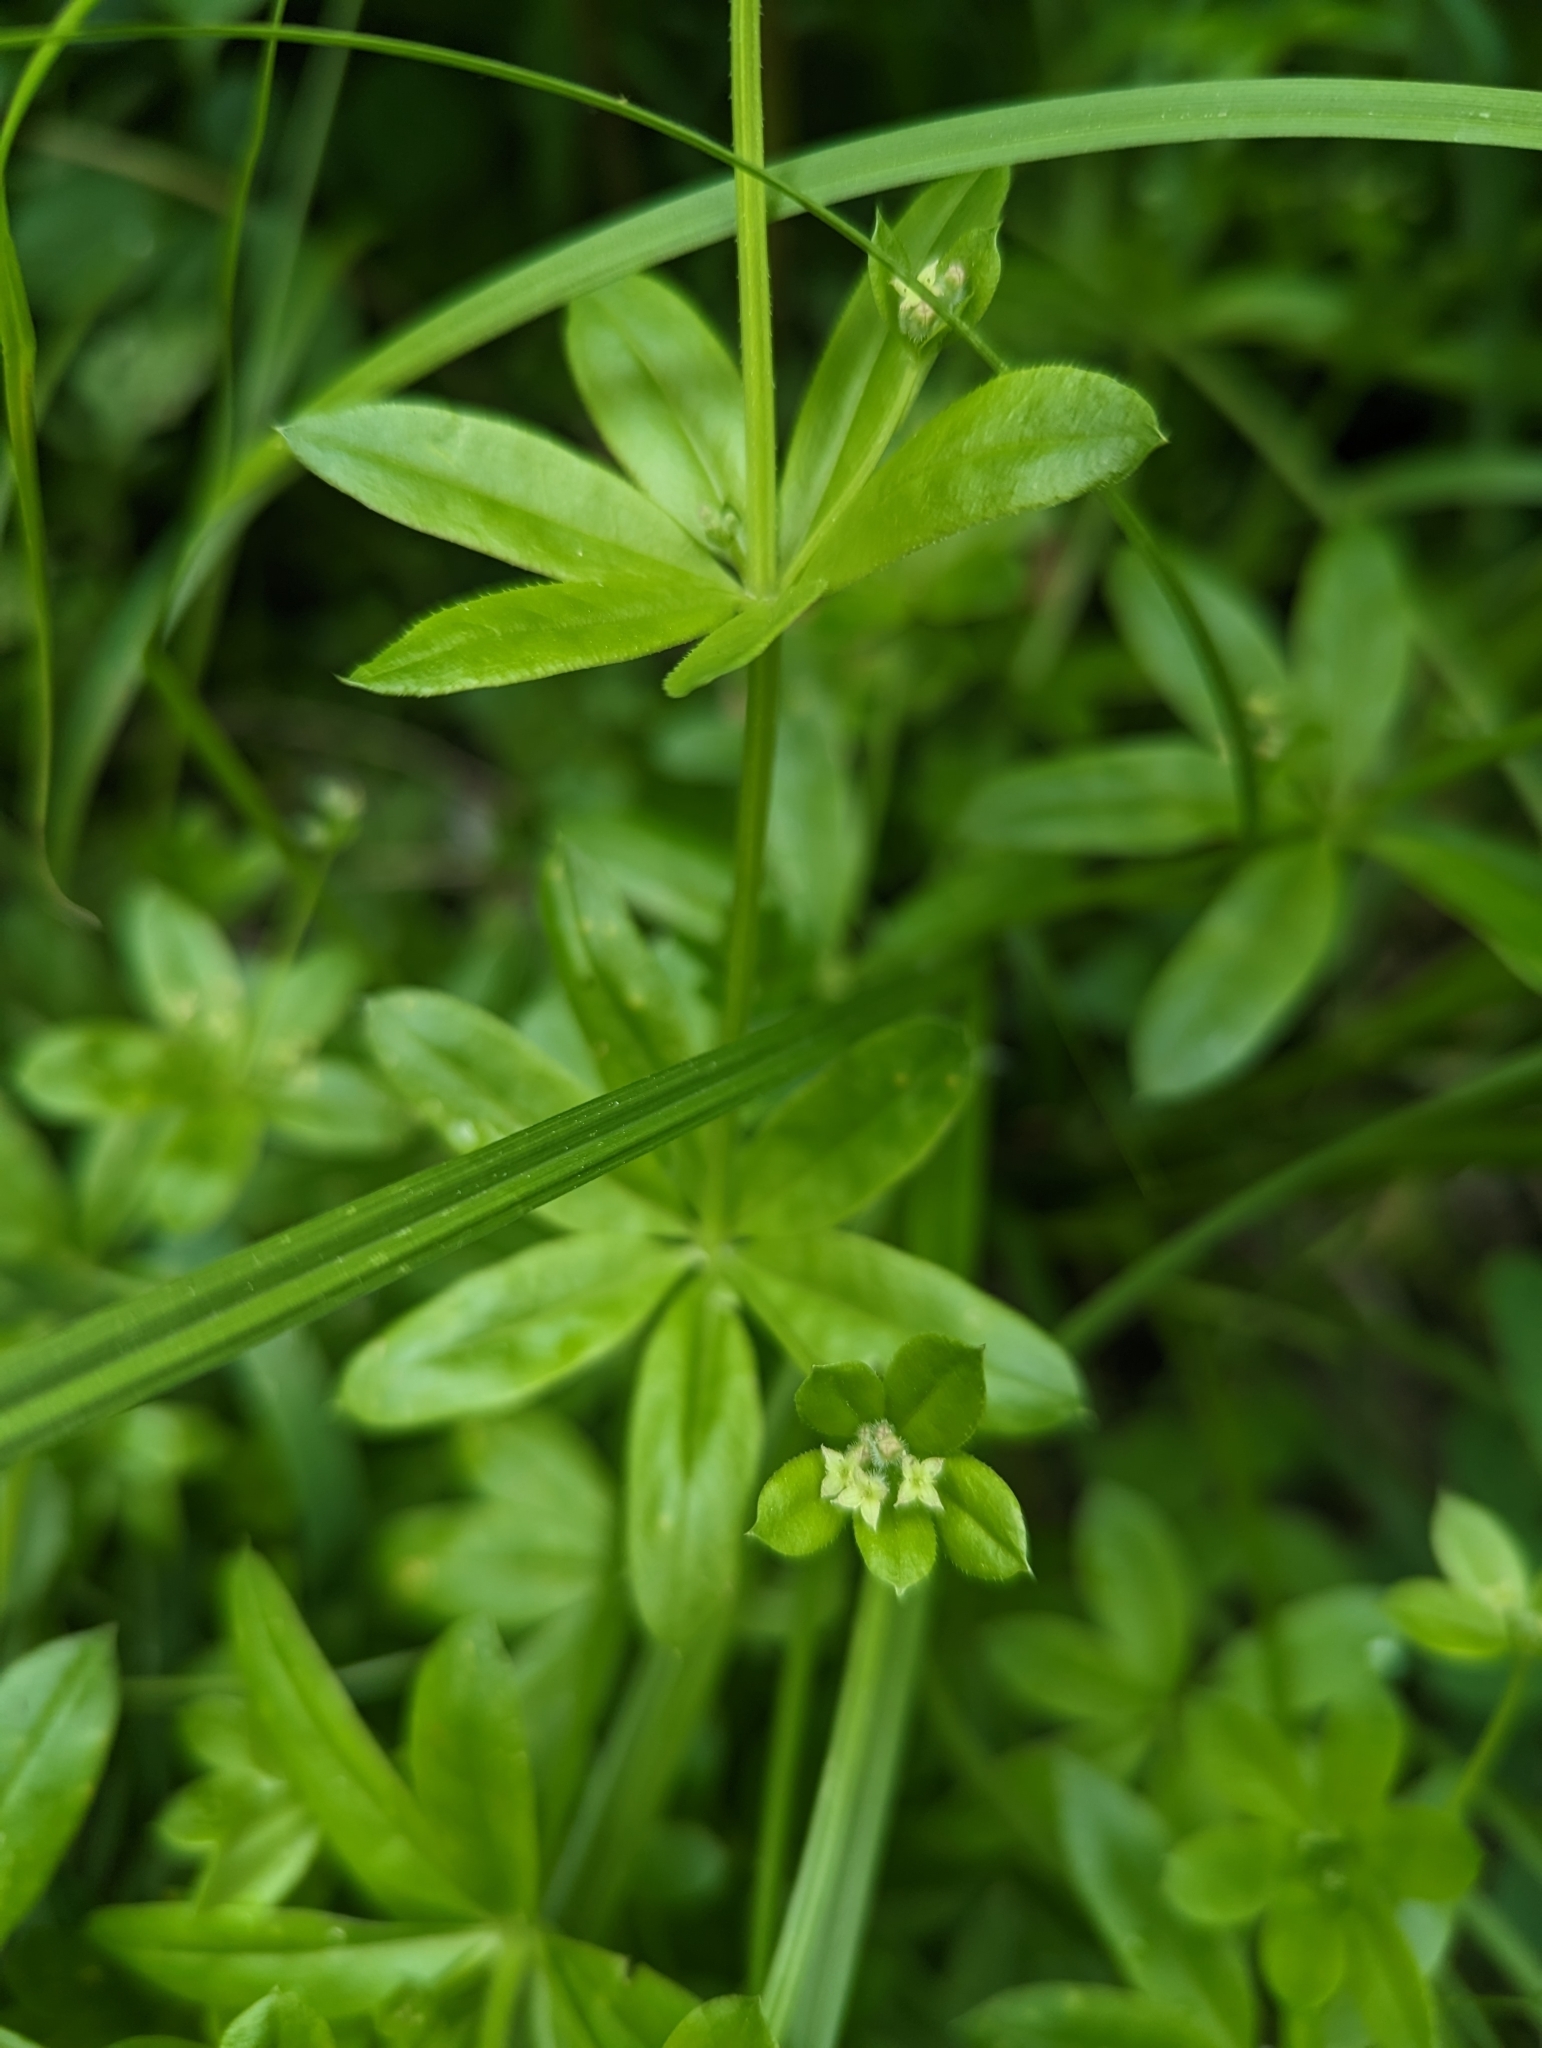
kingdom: Plantae
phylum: Tracheophyta
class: Magnoliopsida
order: Gentianales
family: Rubiaceae
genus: Galium
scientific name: Galium triflorum
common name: Fragrant bedstraw
